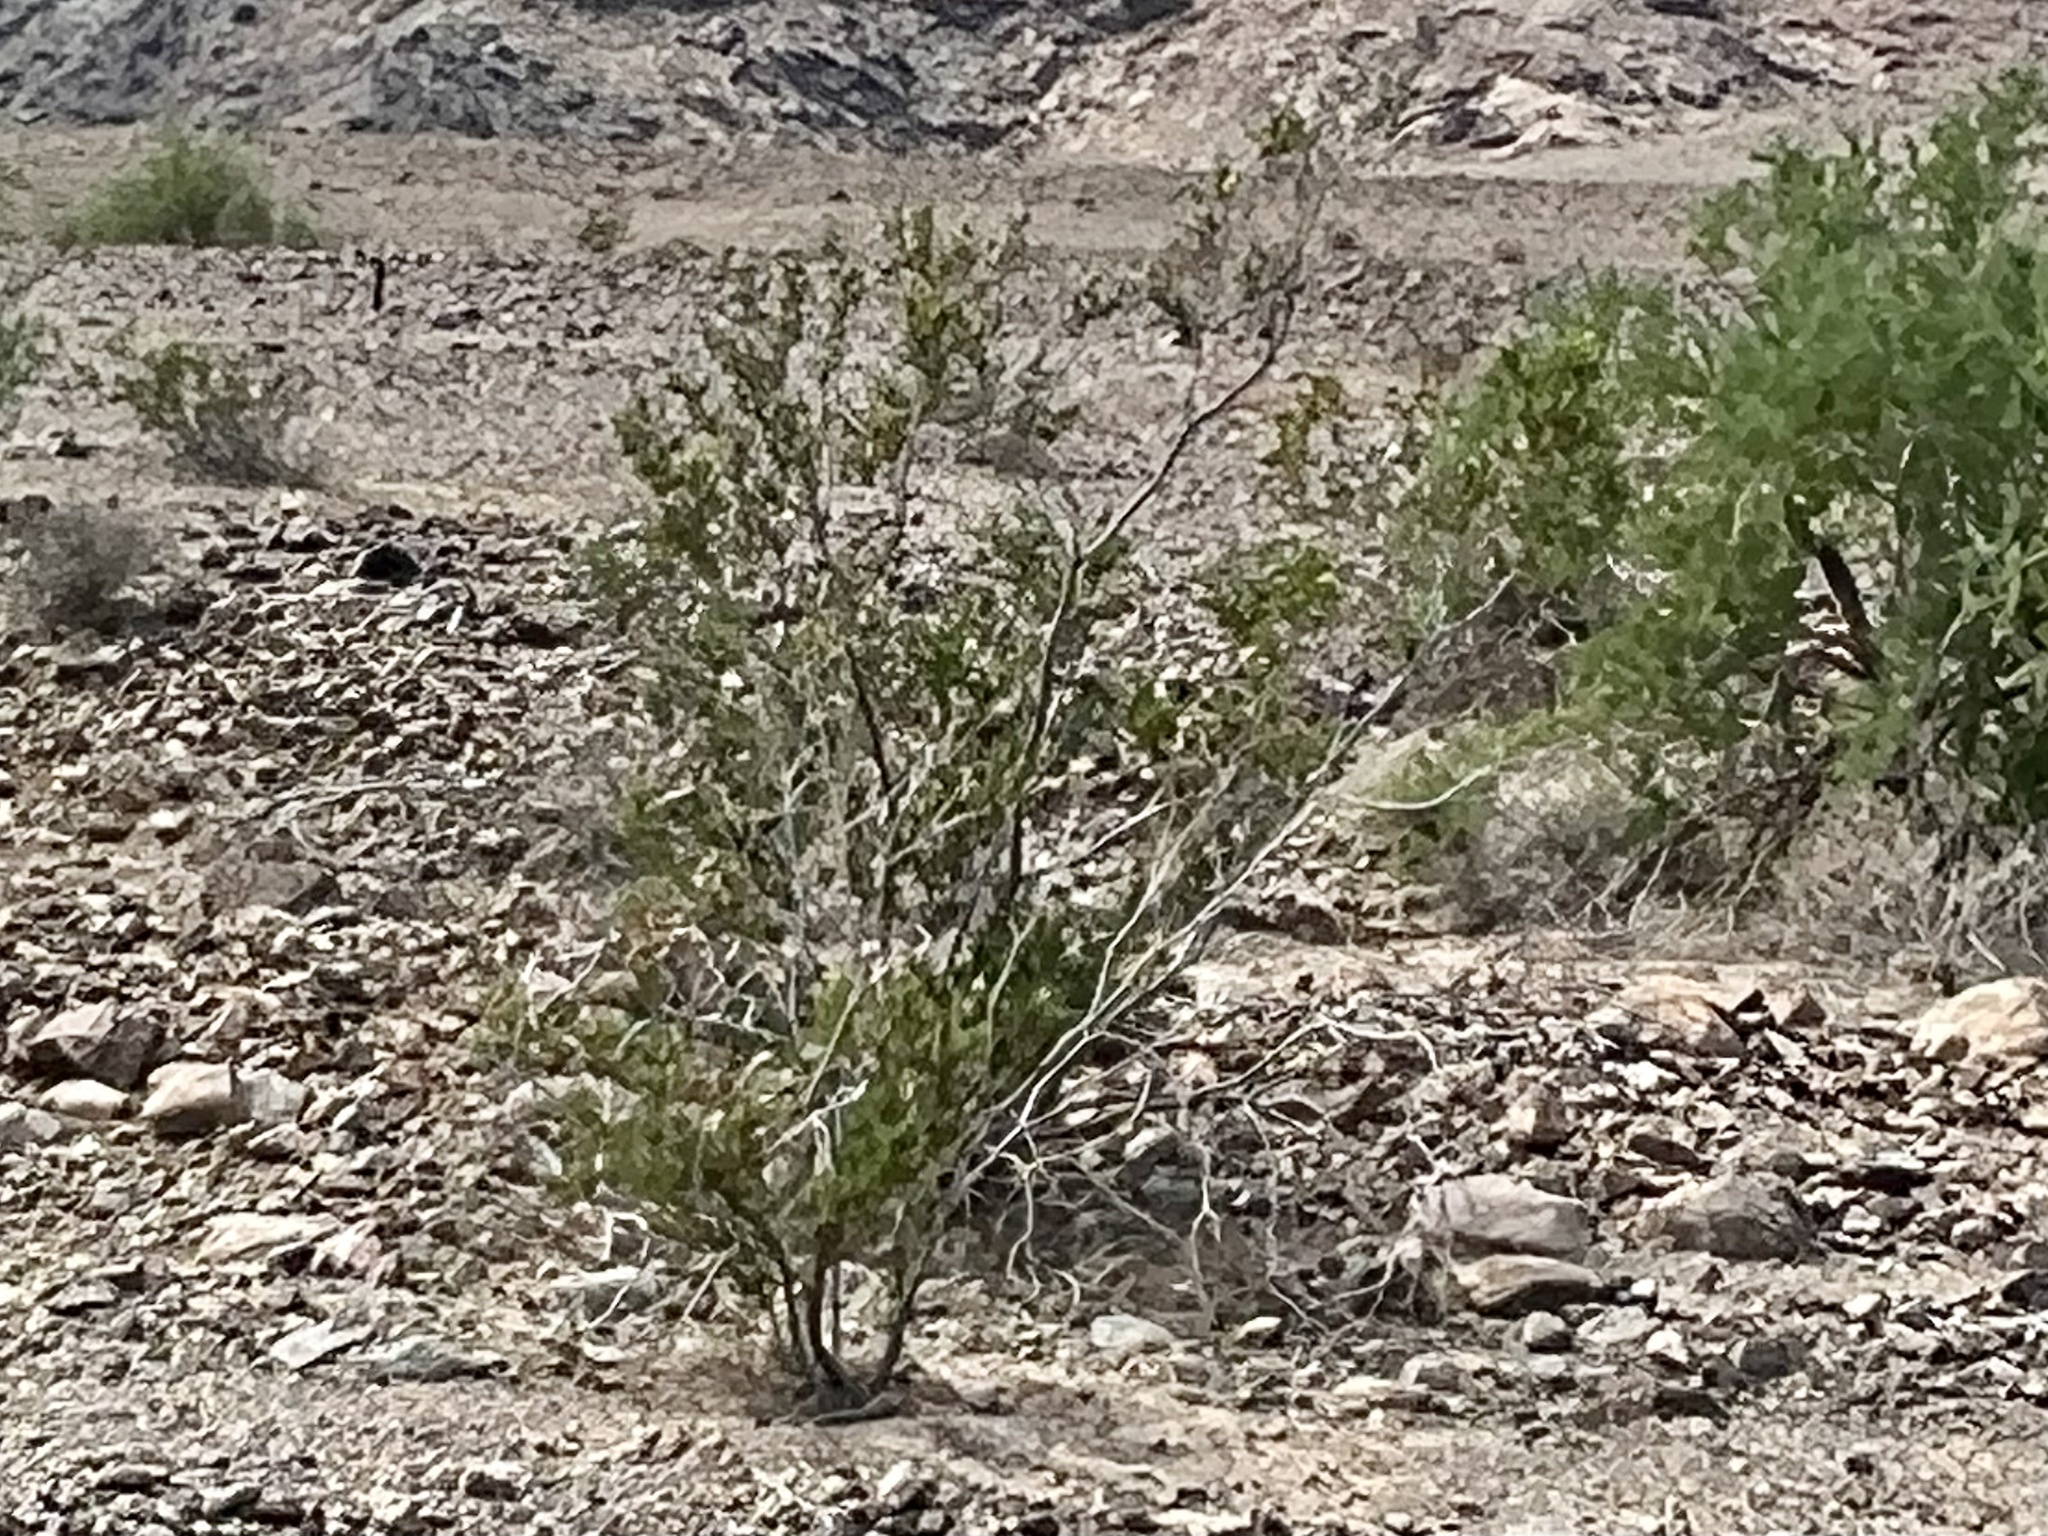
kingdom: Plantae
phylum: Tracheophyta
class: Magnoliopsida
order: Zygophyllales
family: Zygophyllaceae
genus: Larrea
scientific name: Larrea tridentata
